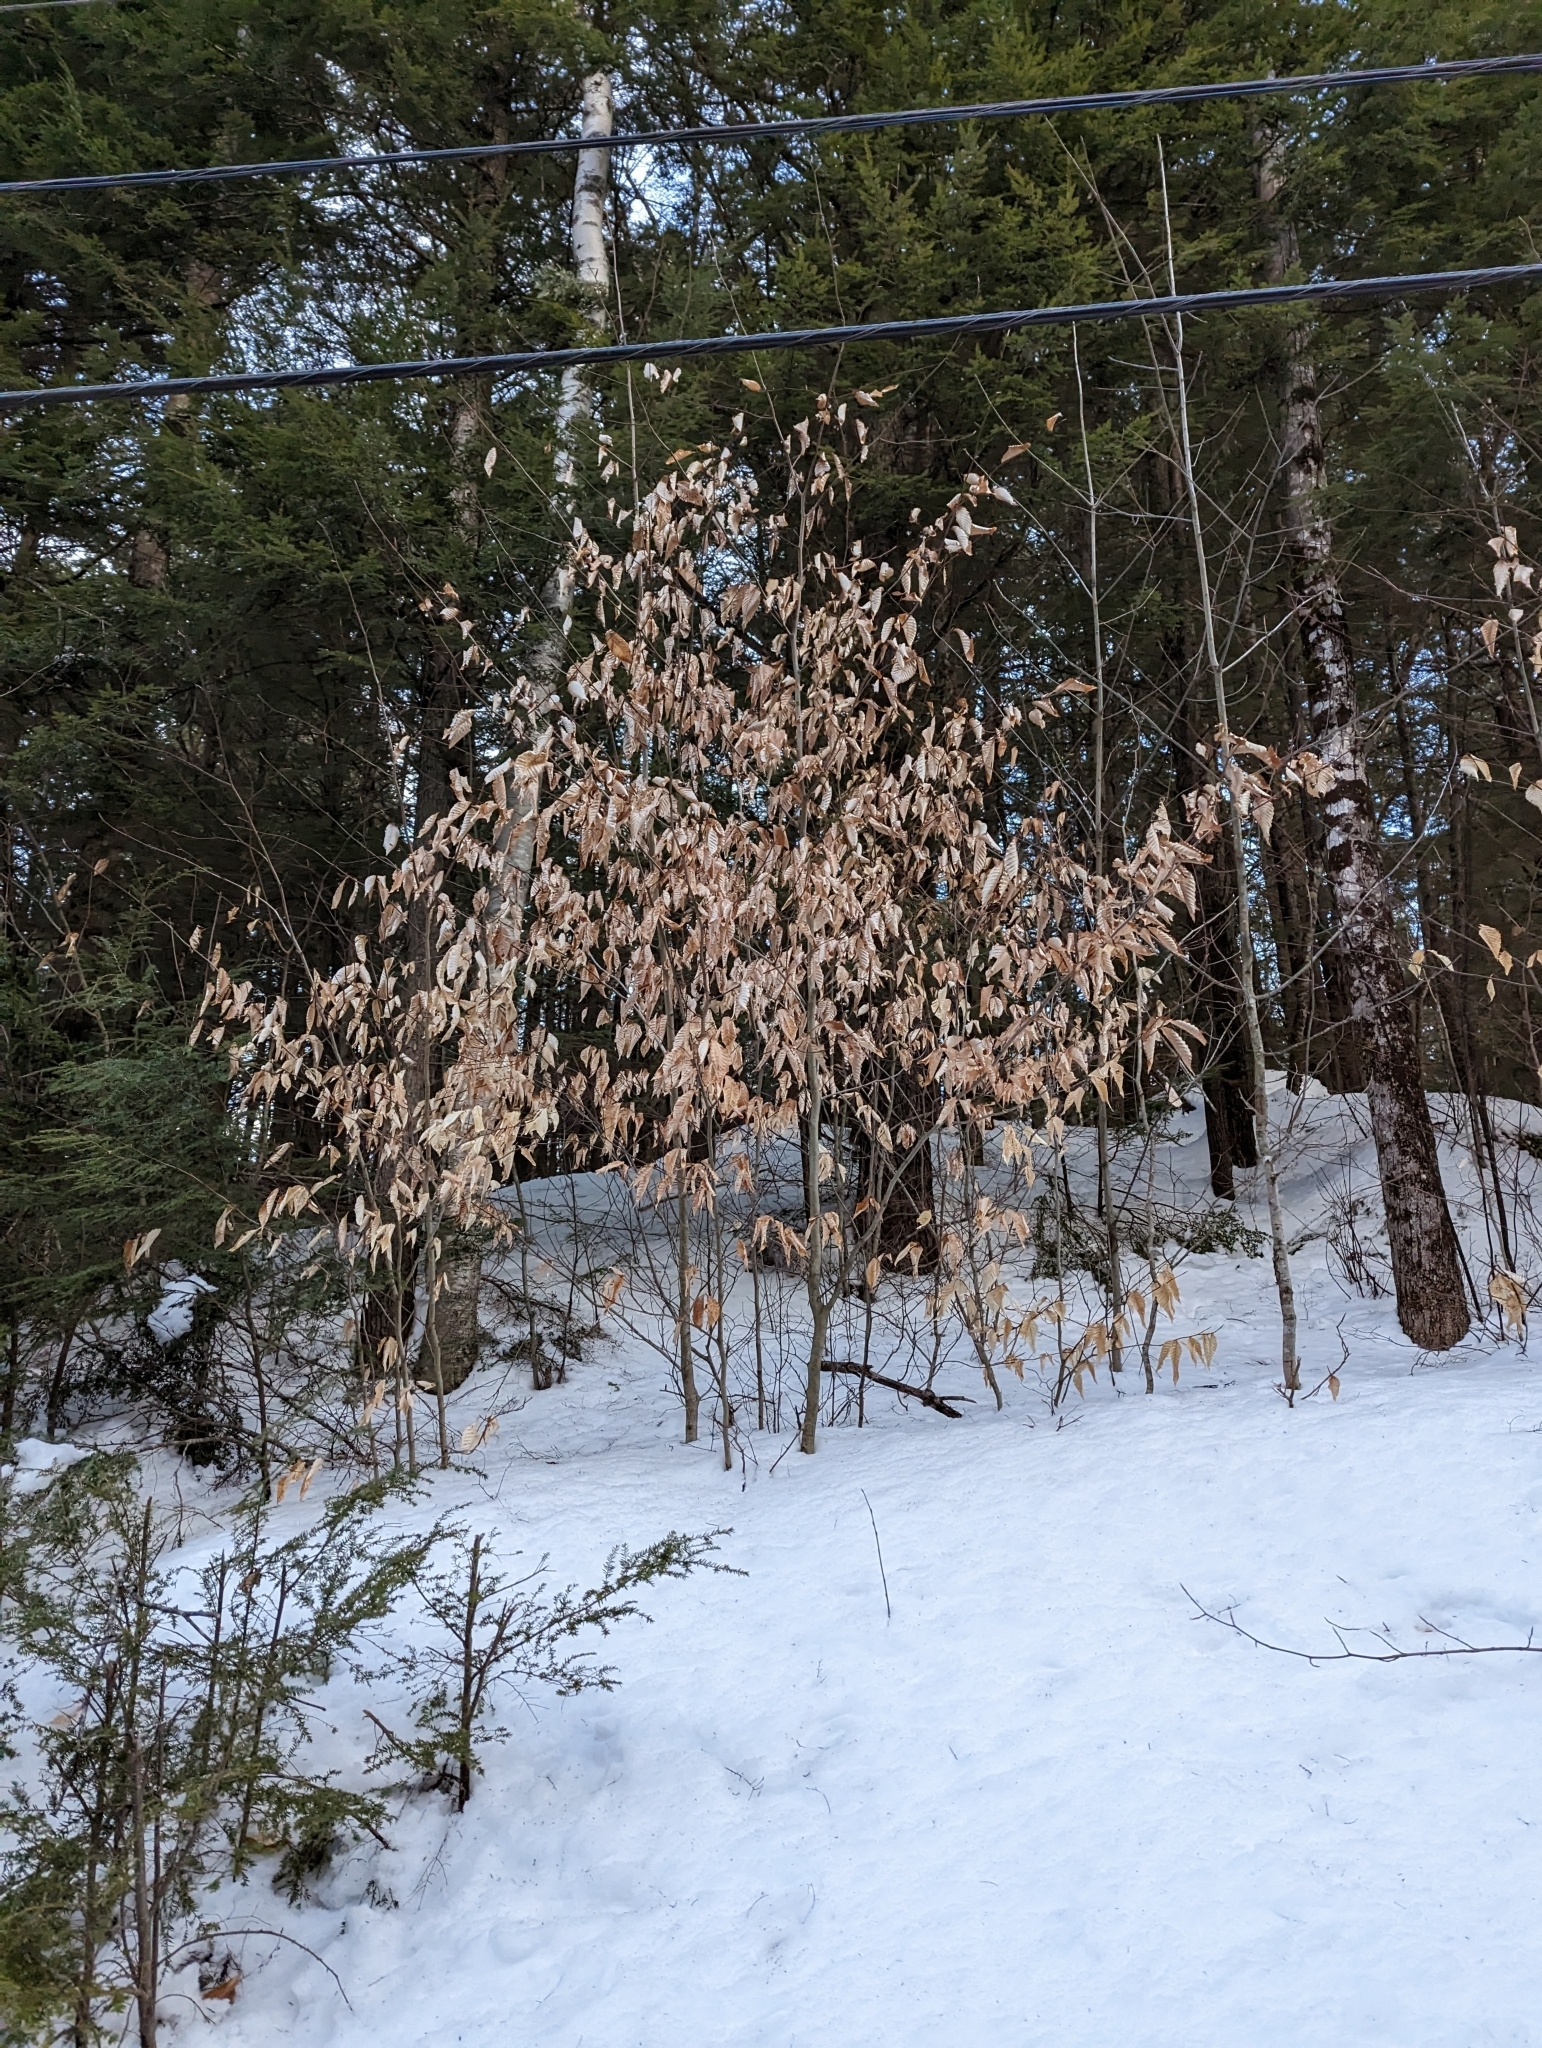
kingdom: Plantae
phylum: Tracheophyta
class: Magnoliopsida
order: Fagales
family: Fagaceae
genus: Fagus
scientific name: Fagus grandifolia
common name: American beech
